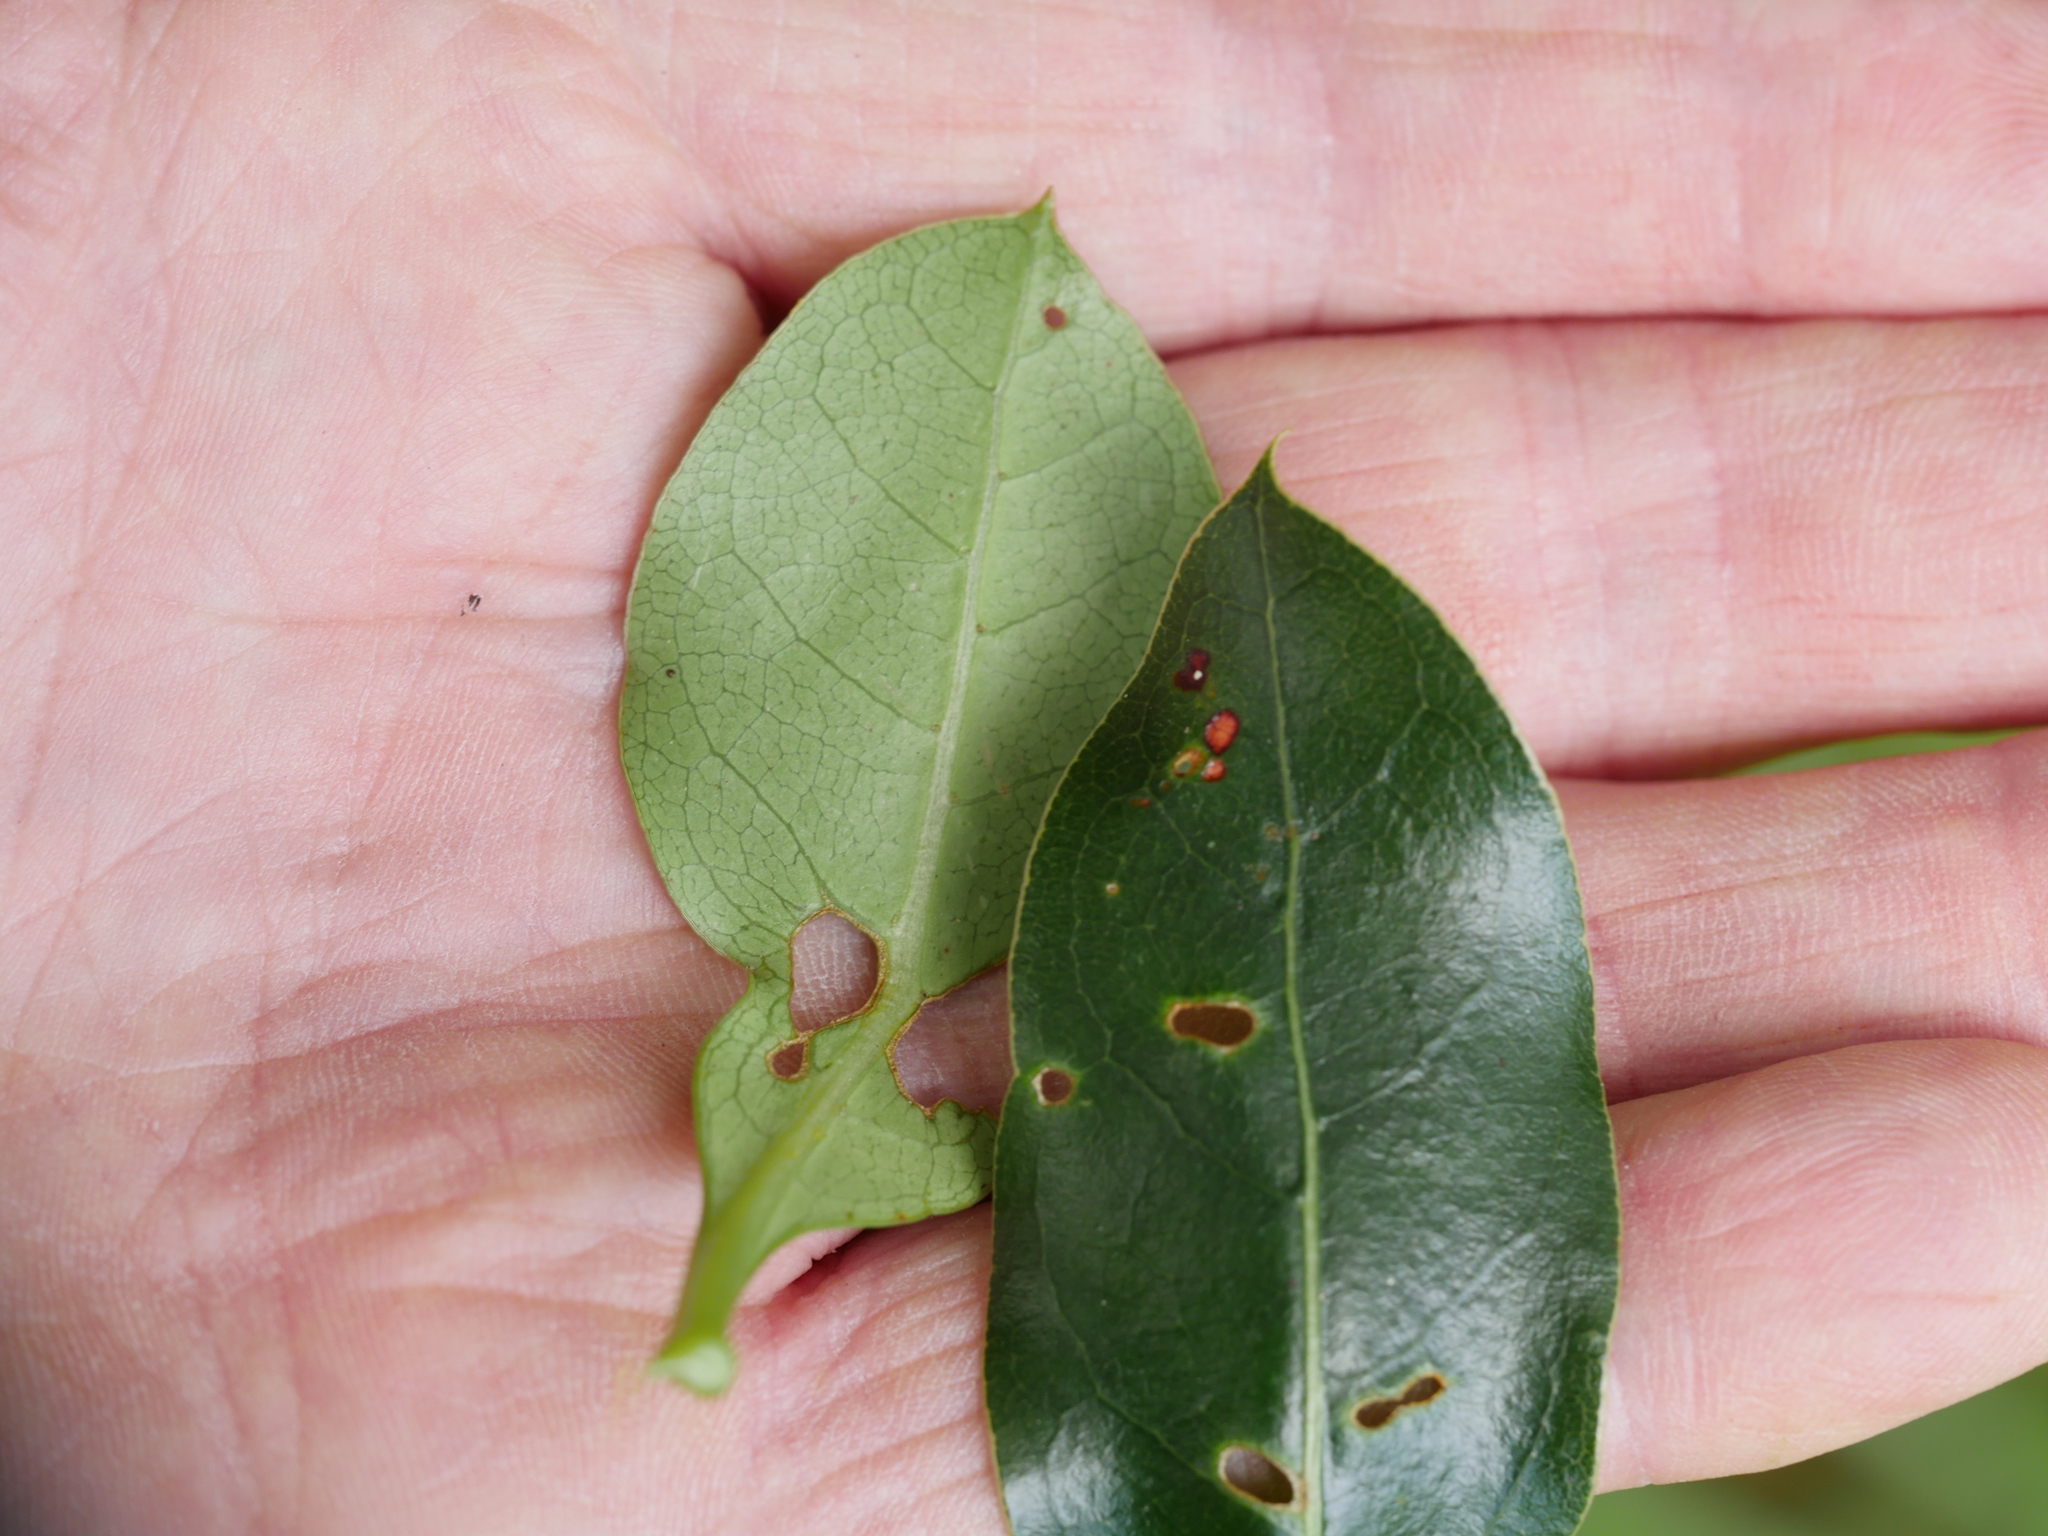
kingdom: Plantae
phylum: Tracheophyta
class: Magnoliopsida
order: Gentianales
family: Rubiaceae
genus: Coprosma
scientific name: Coprosma lucida
